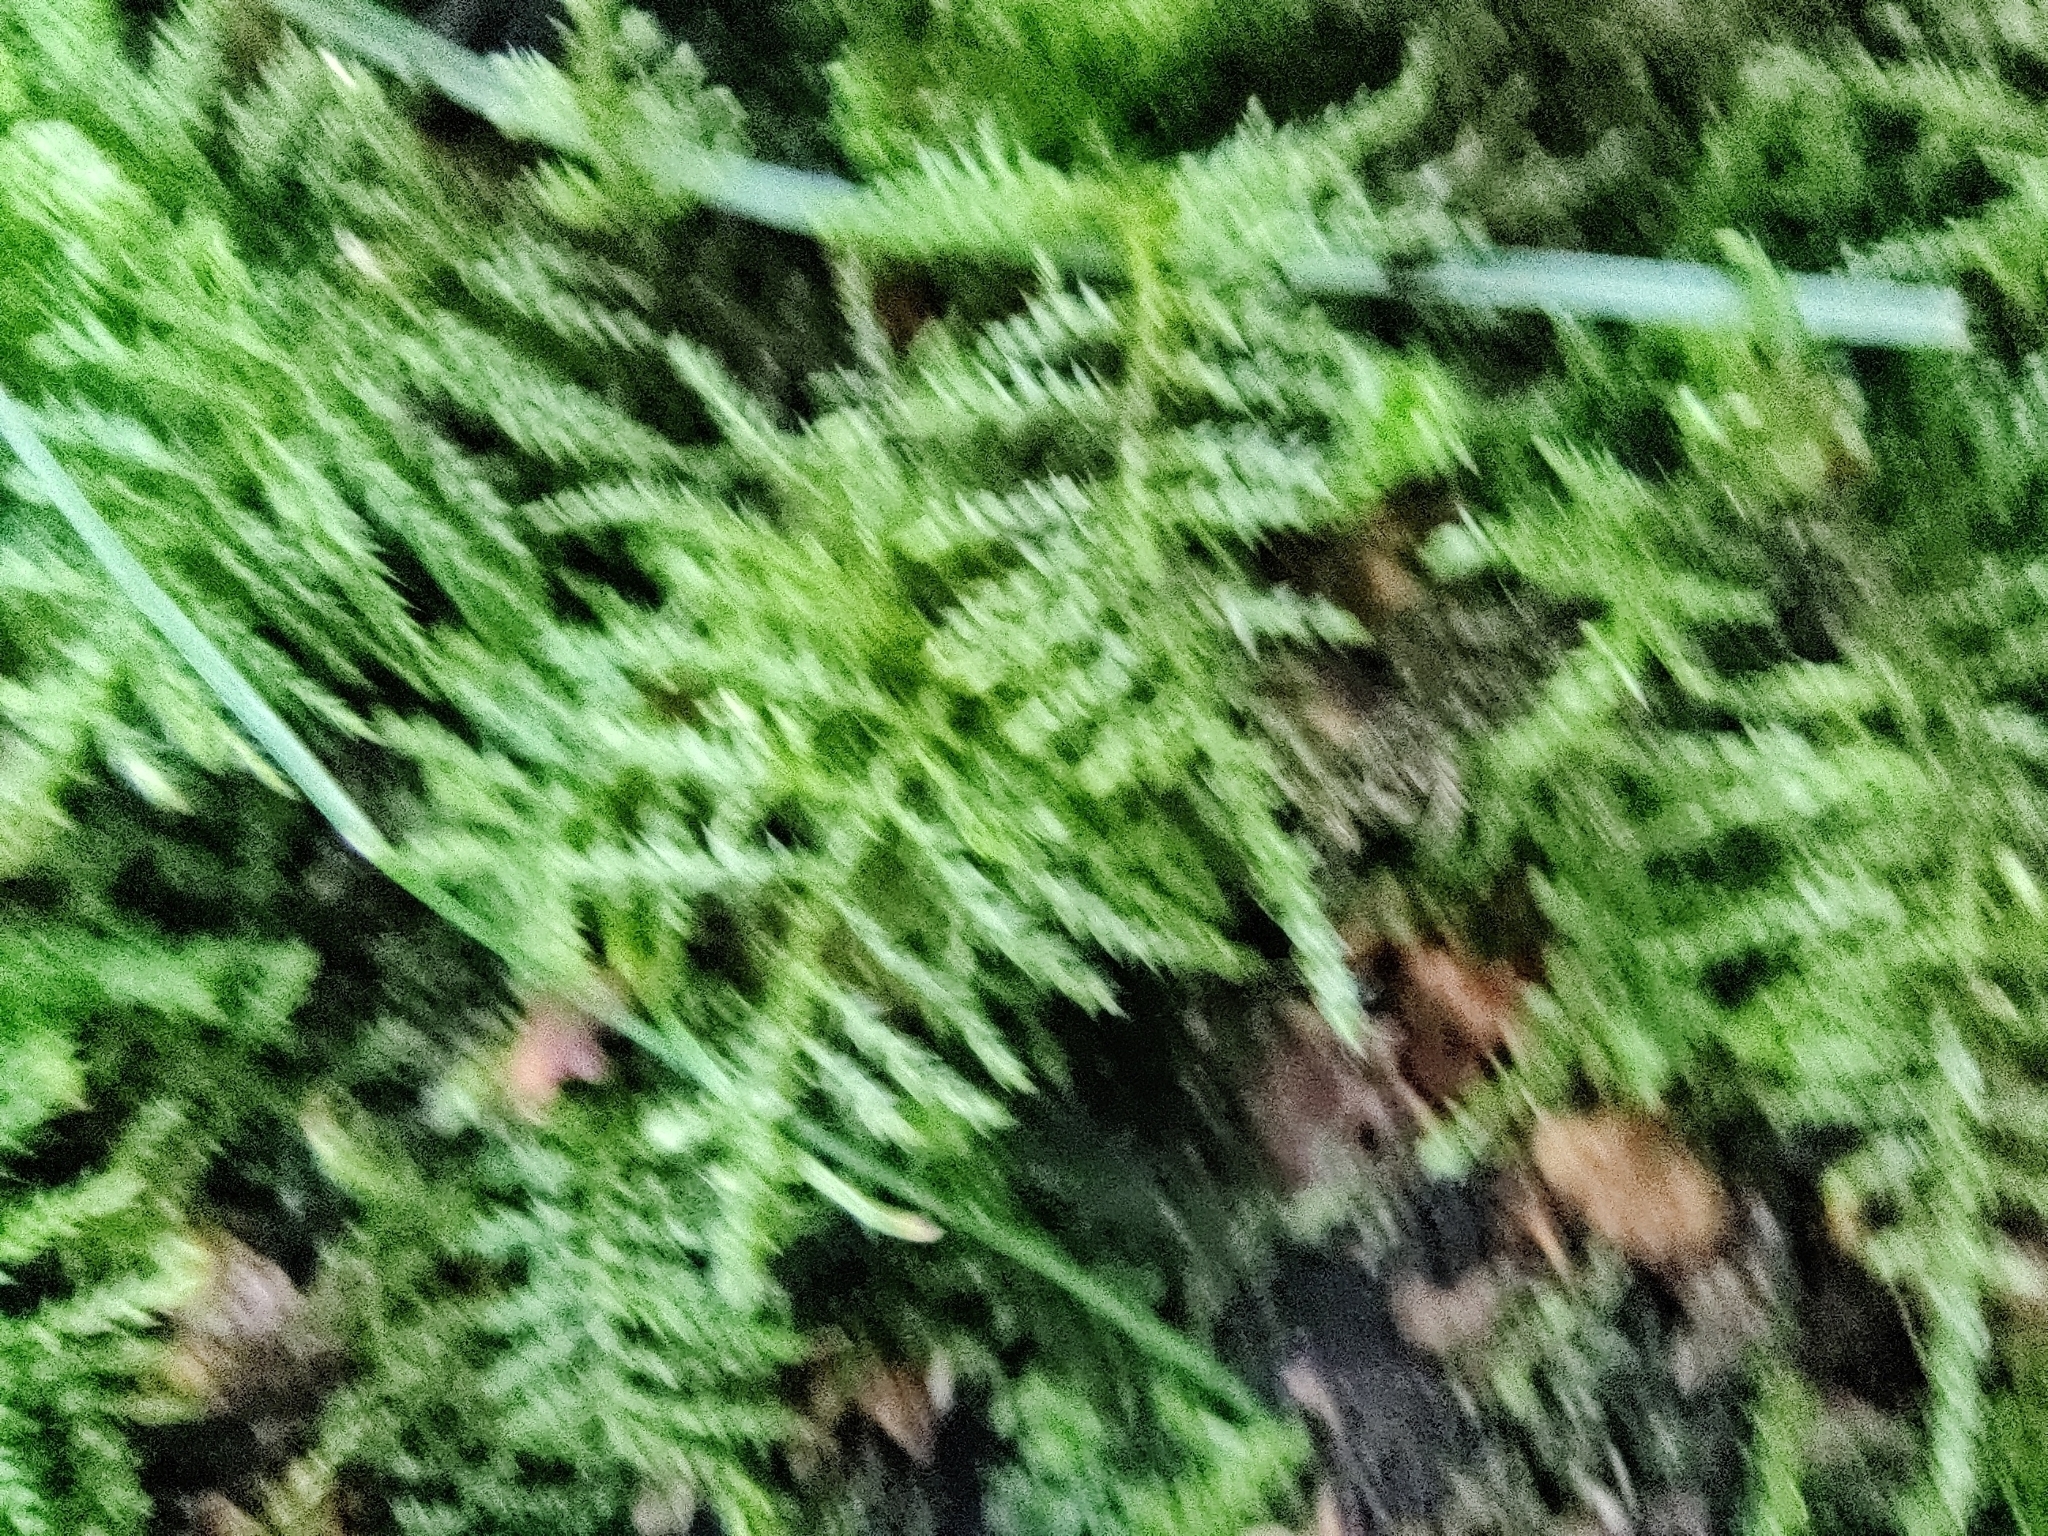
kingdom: Plantae
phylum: Bryophyta
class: Bryopsida
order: Hypnales
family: Brachytheciaceae
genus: Kindbergia
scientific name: Kindbergia praelonga
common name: Slender beaked moss
